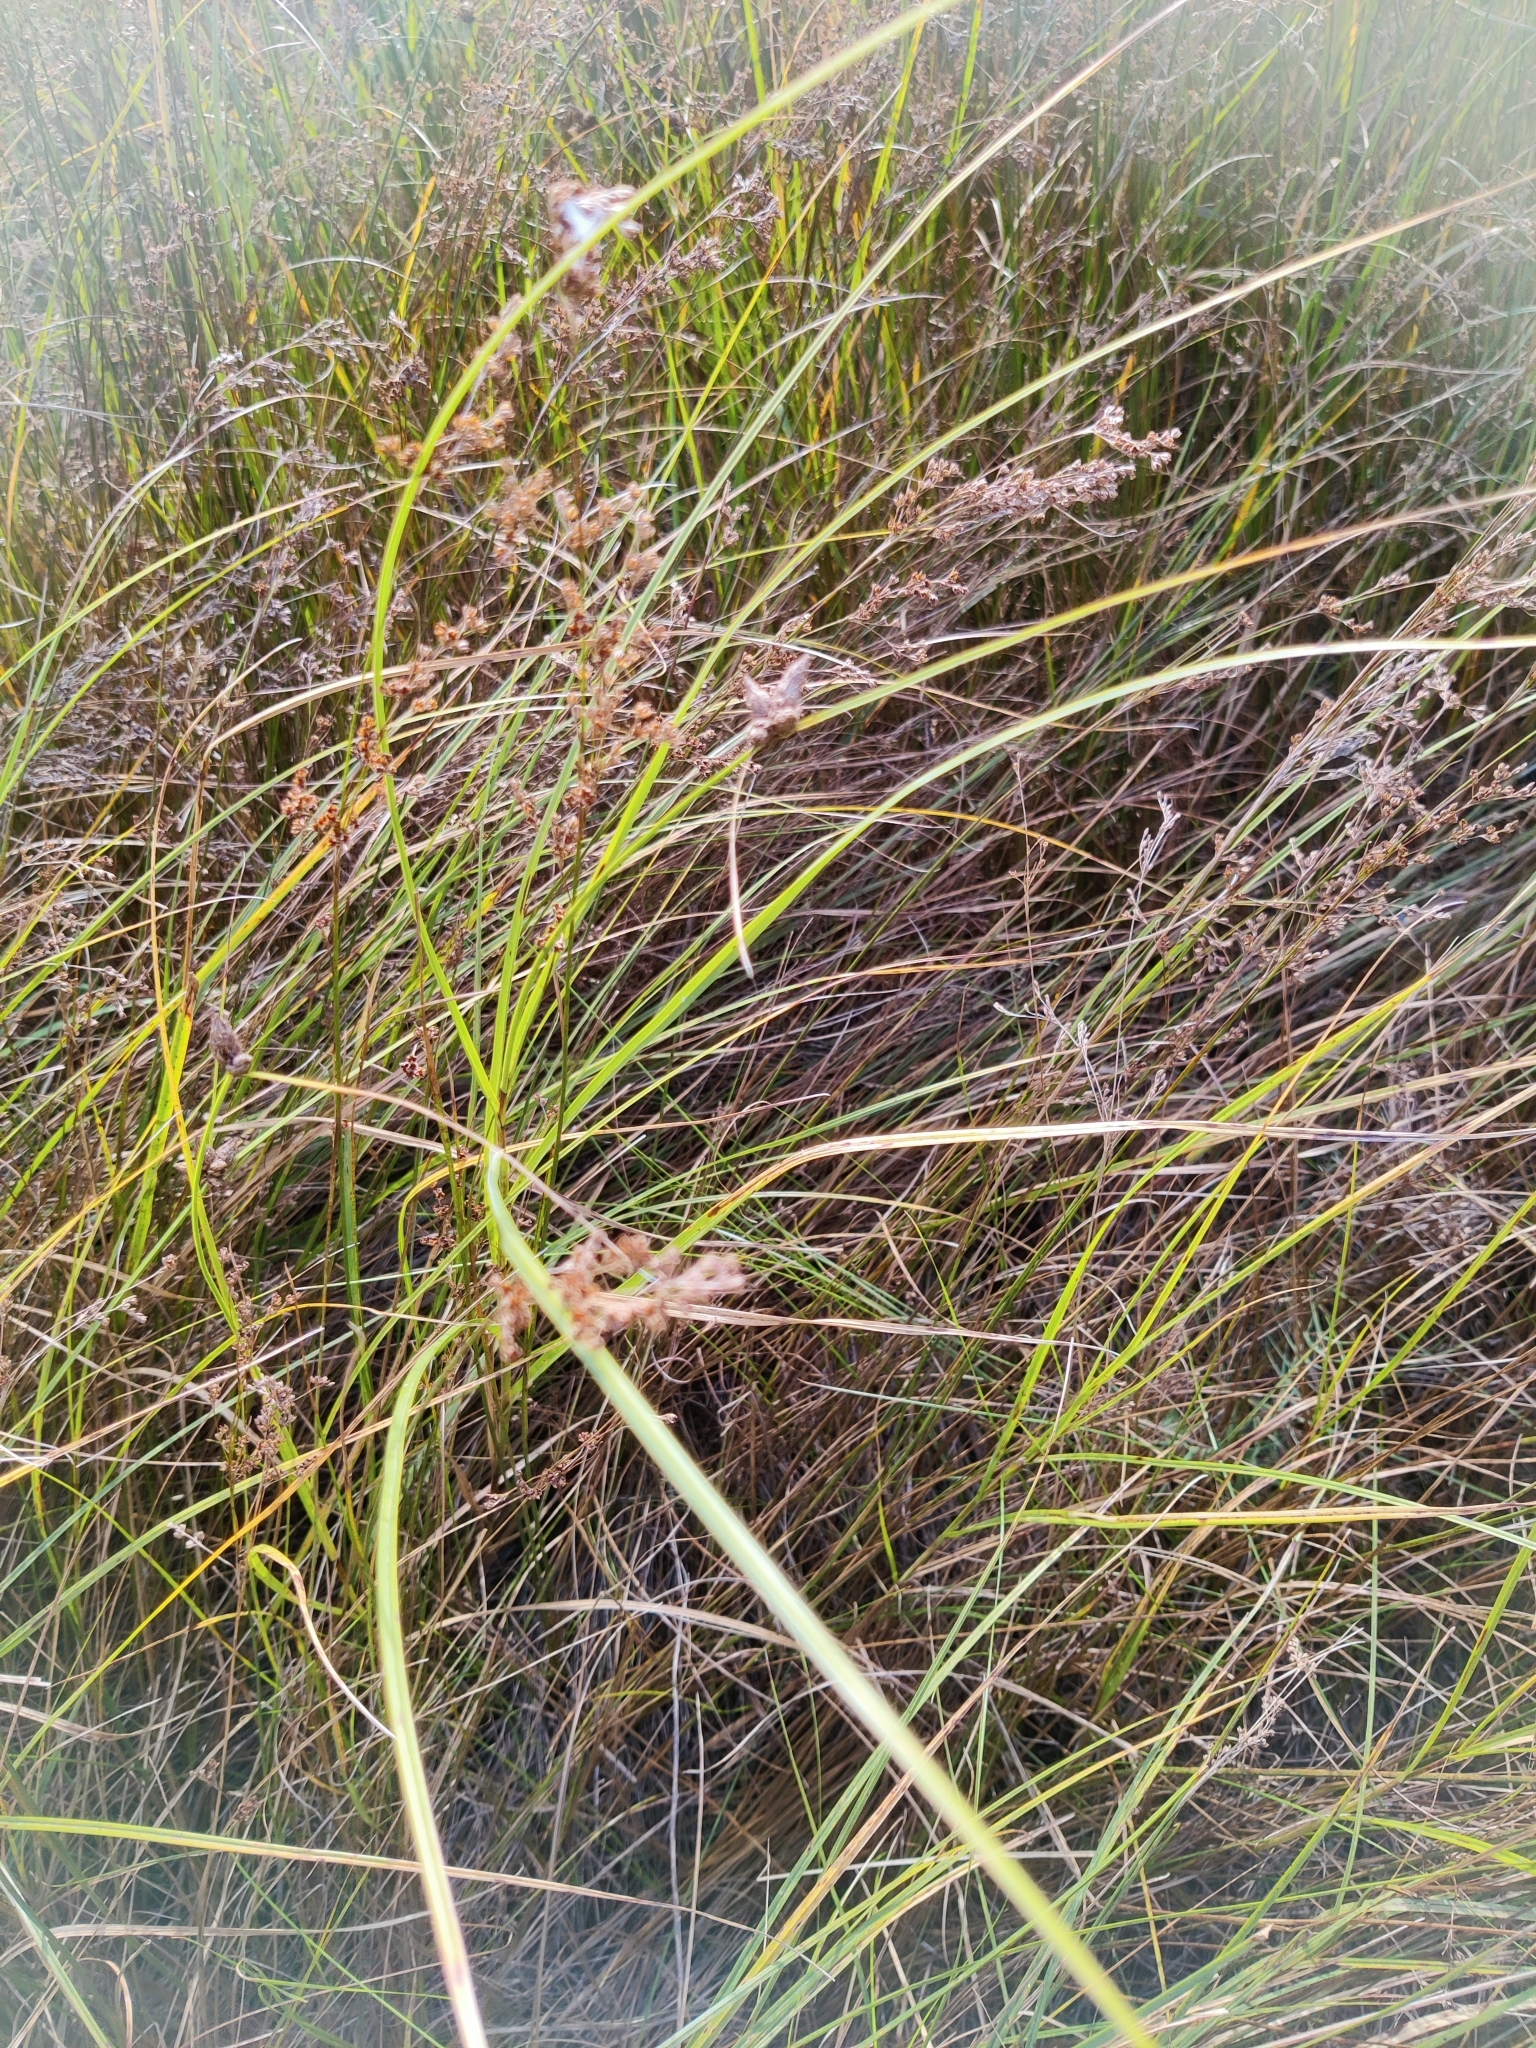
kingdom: Plantae
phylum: Tracheophyta
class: Liliopsida
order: Poales
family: Juncaceae
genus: Juncus
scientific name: Juncus compressus
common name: Round-fruited rush
